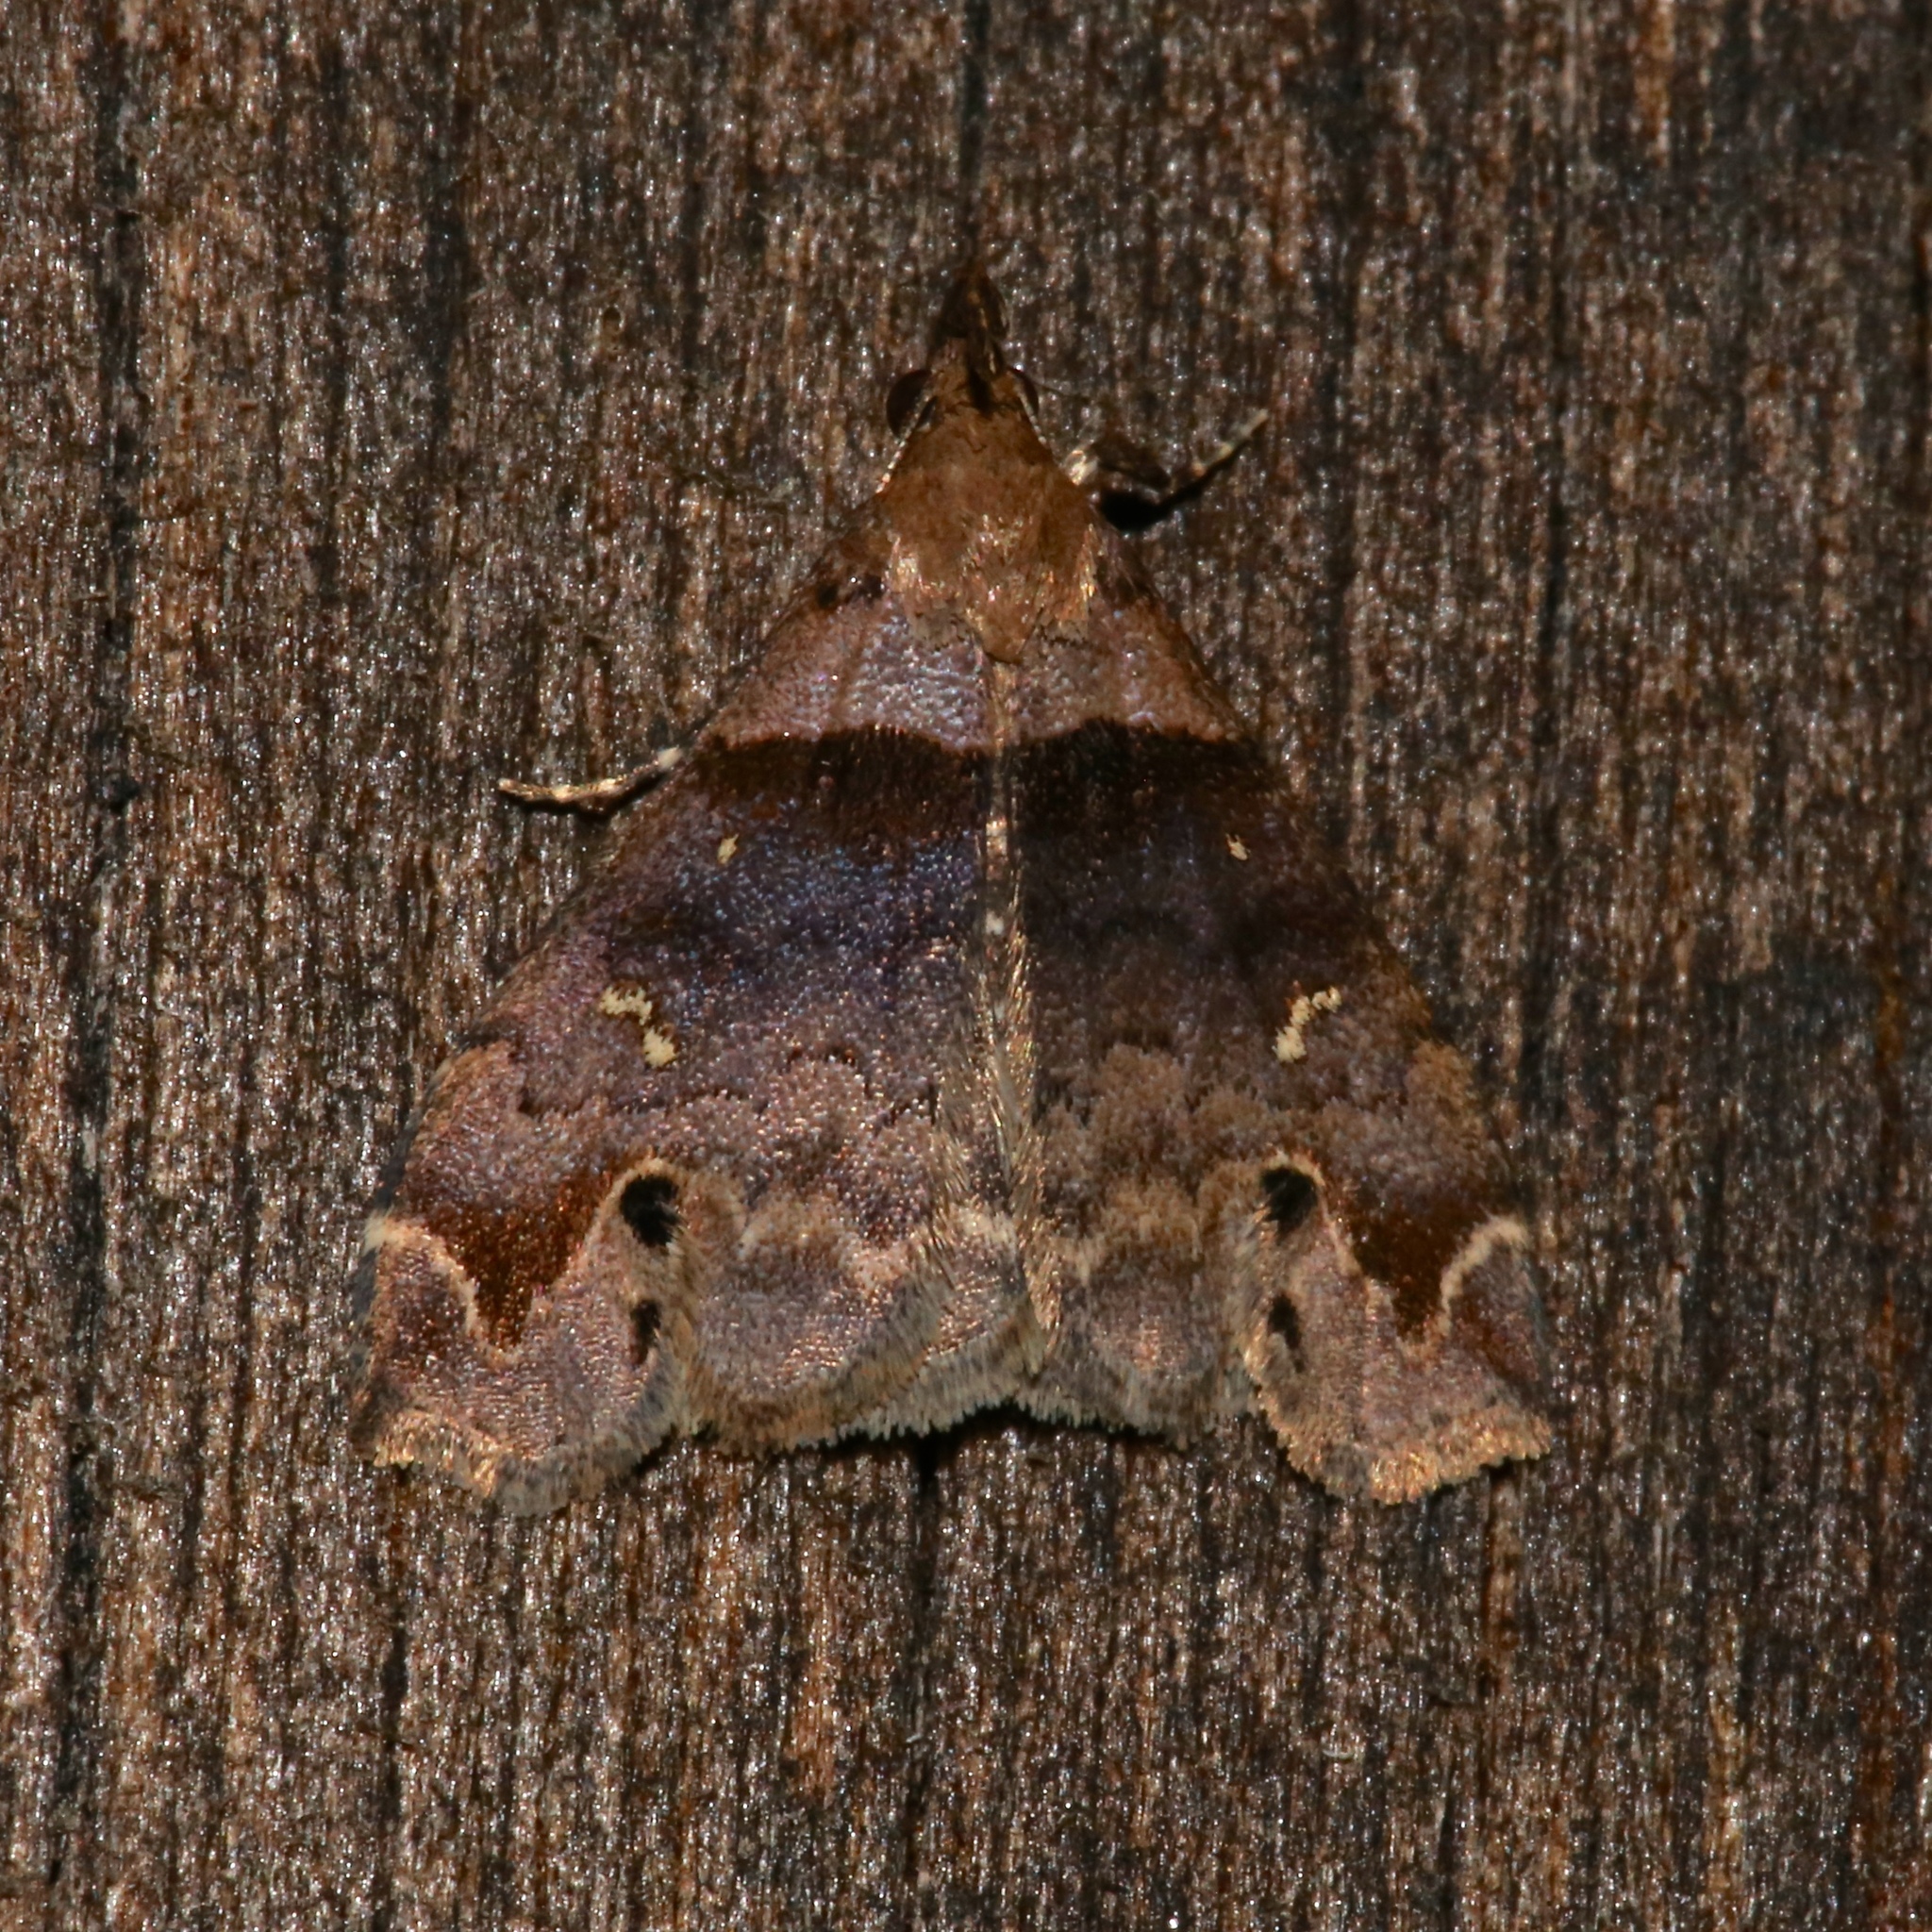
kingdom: Animalia
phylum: Arthropoda
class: Insecta
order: Lepidoptera
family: Erebidae
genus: Lascoria
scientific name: Lascoria ambigualis
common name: Ambiguous moth
